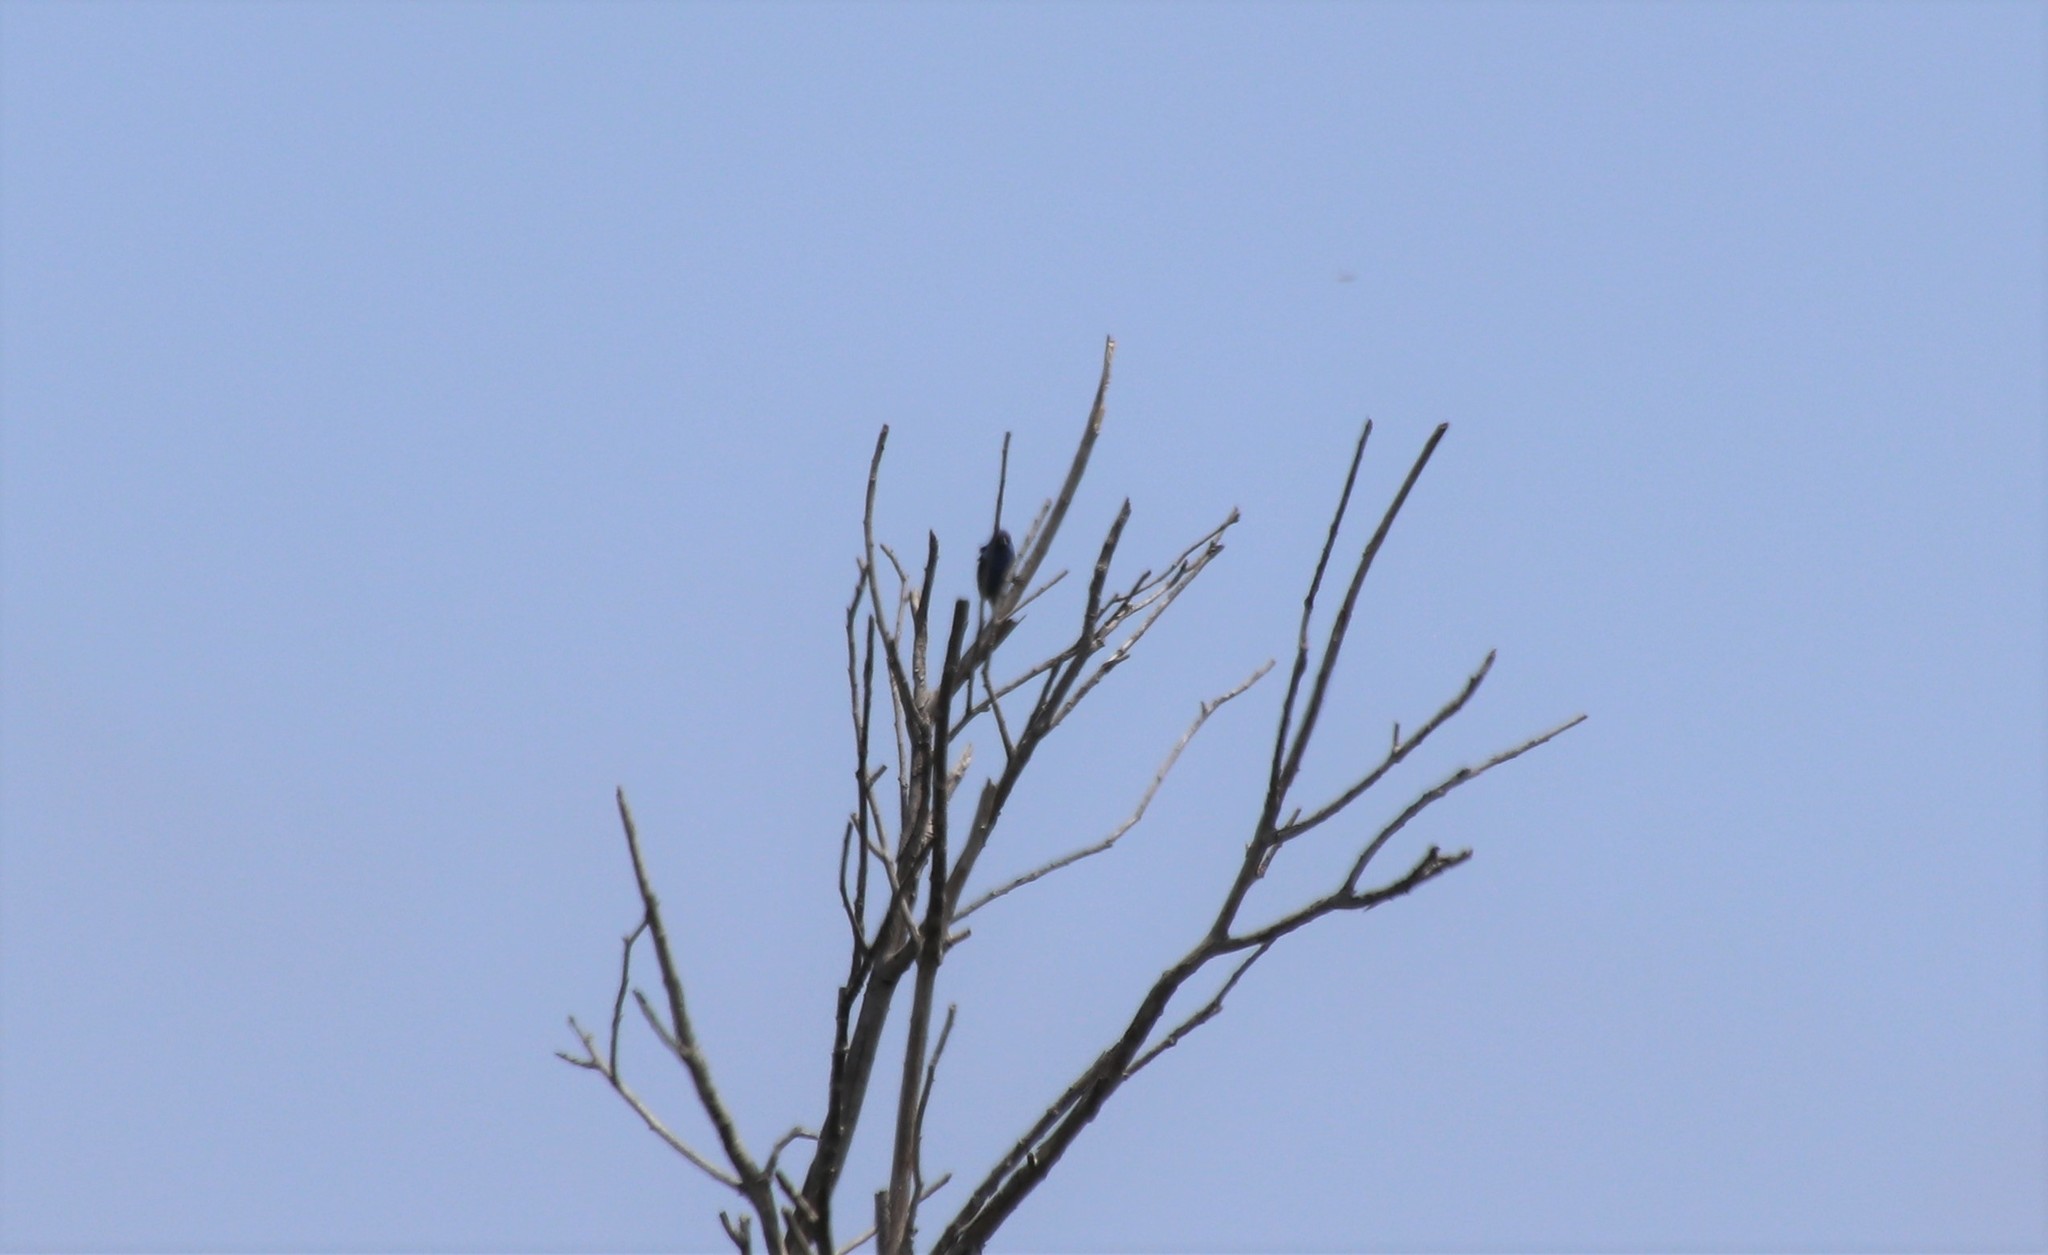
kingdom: Animalia
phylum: Chordata
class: Aves
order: Passeriformes
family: Cardinalidae
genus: Passerina
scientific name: Passerina cyanea
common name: Indigo bunting
